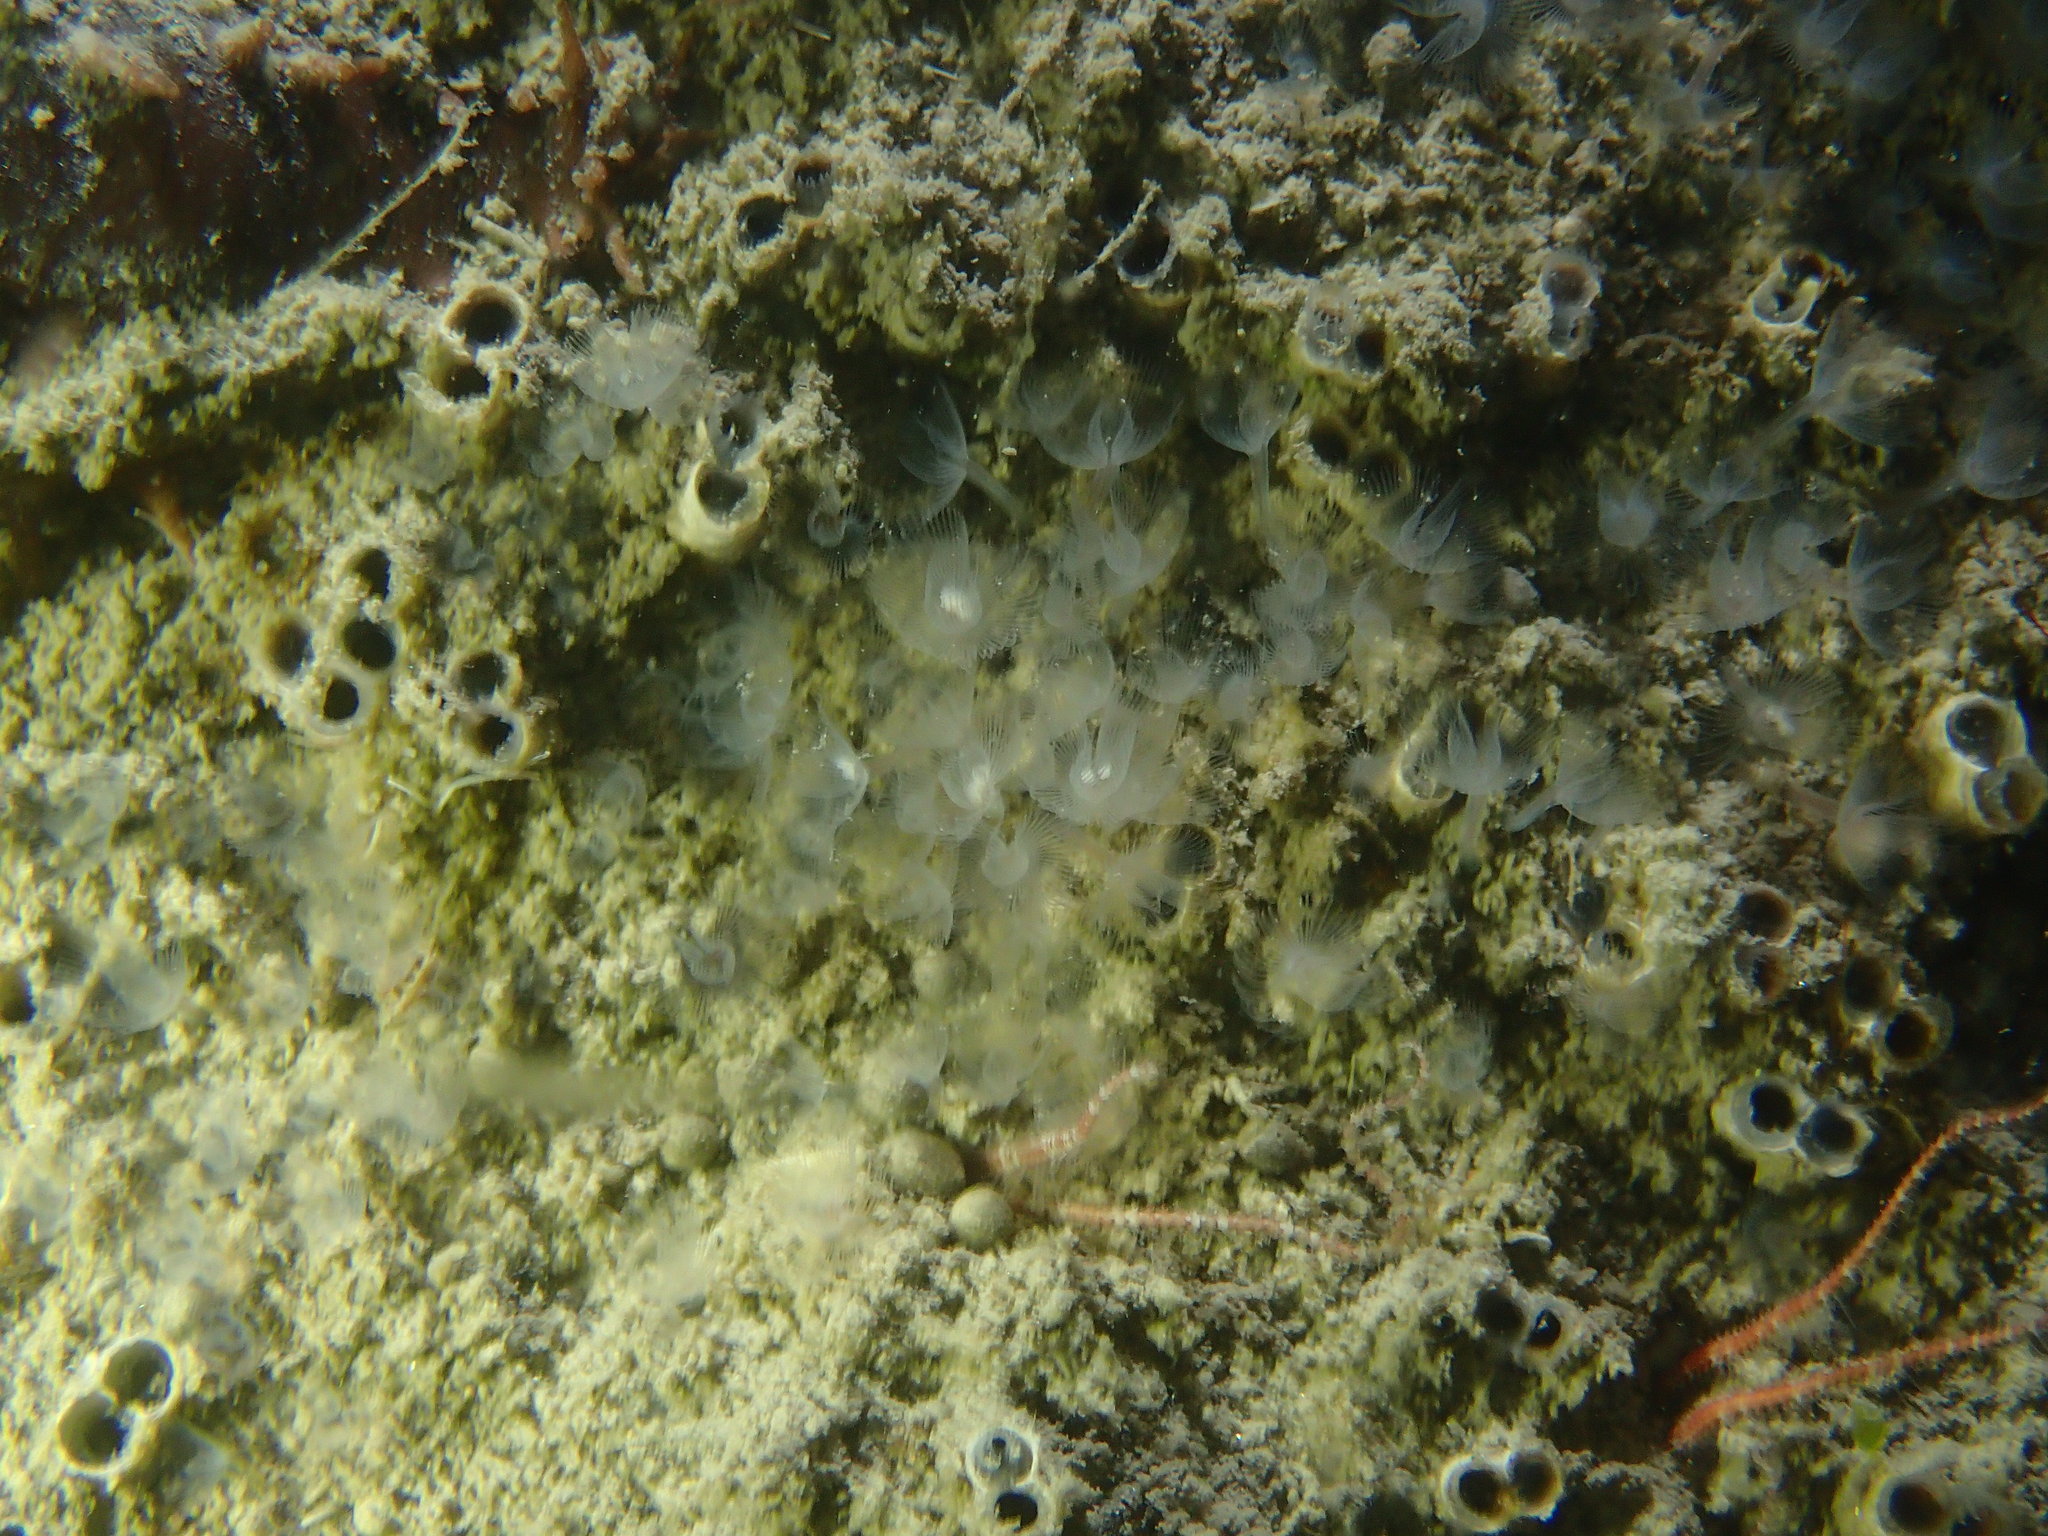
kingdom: Animalia
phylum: Mollusca
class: Bivalvia
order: Gastrochaenida
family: Gastrochaenidae
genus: Rocellaria
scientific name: Rocellaria dubia
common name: European flask shell
